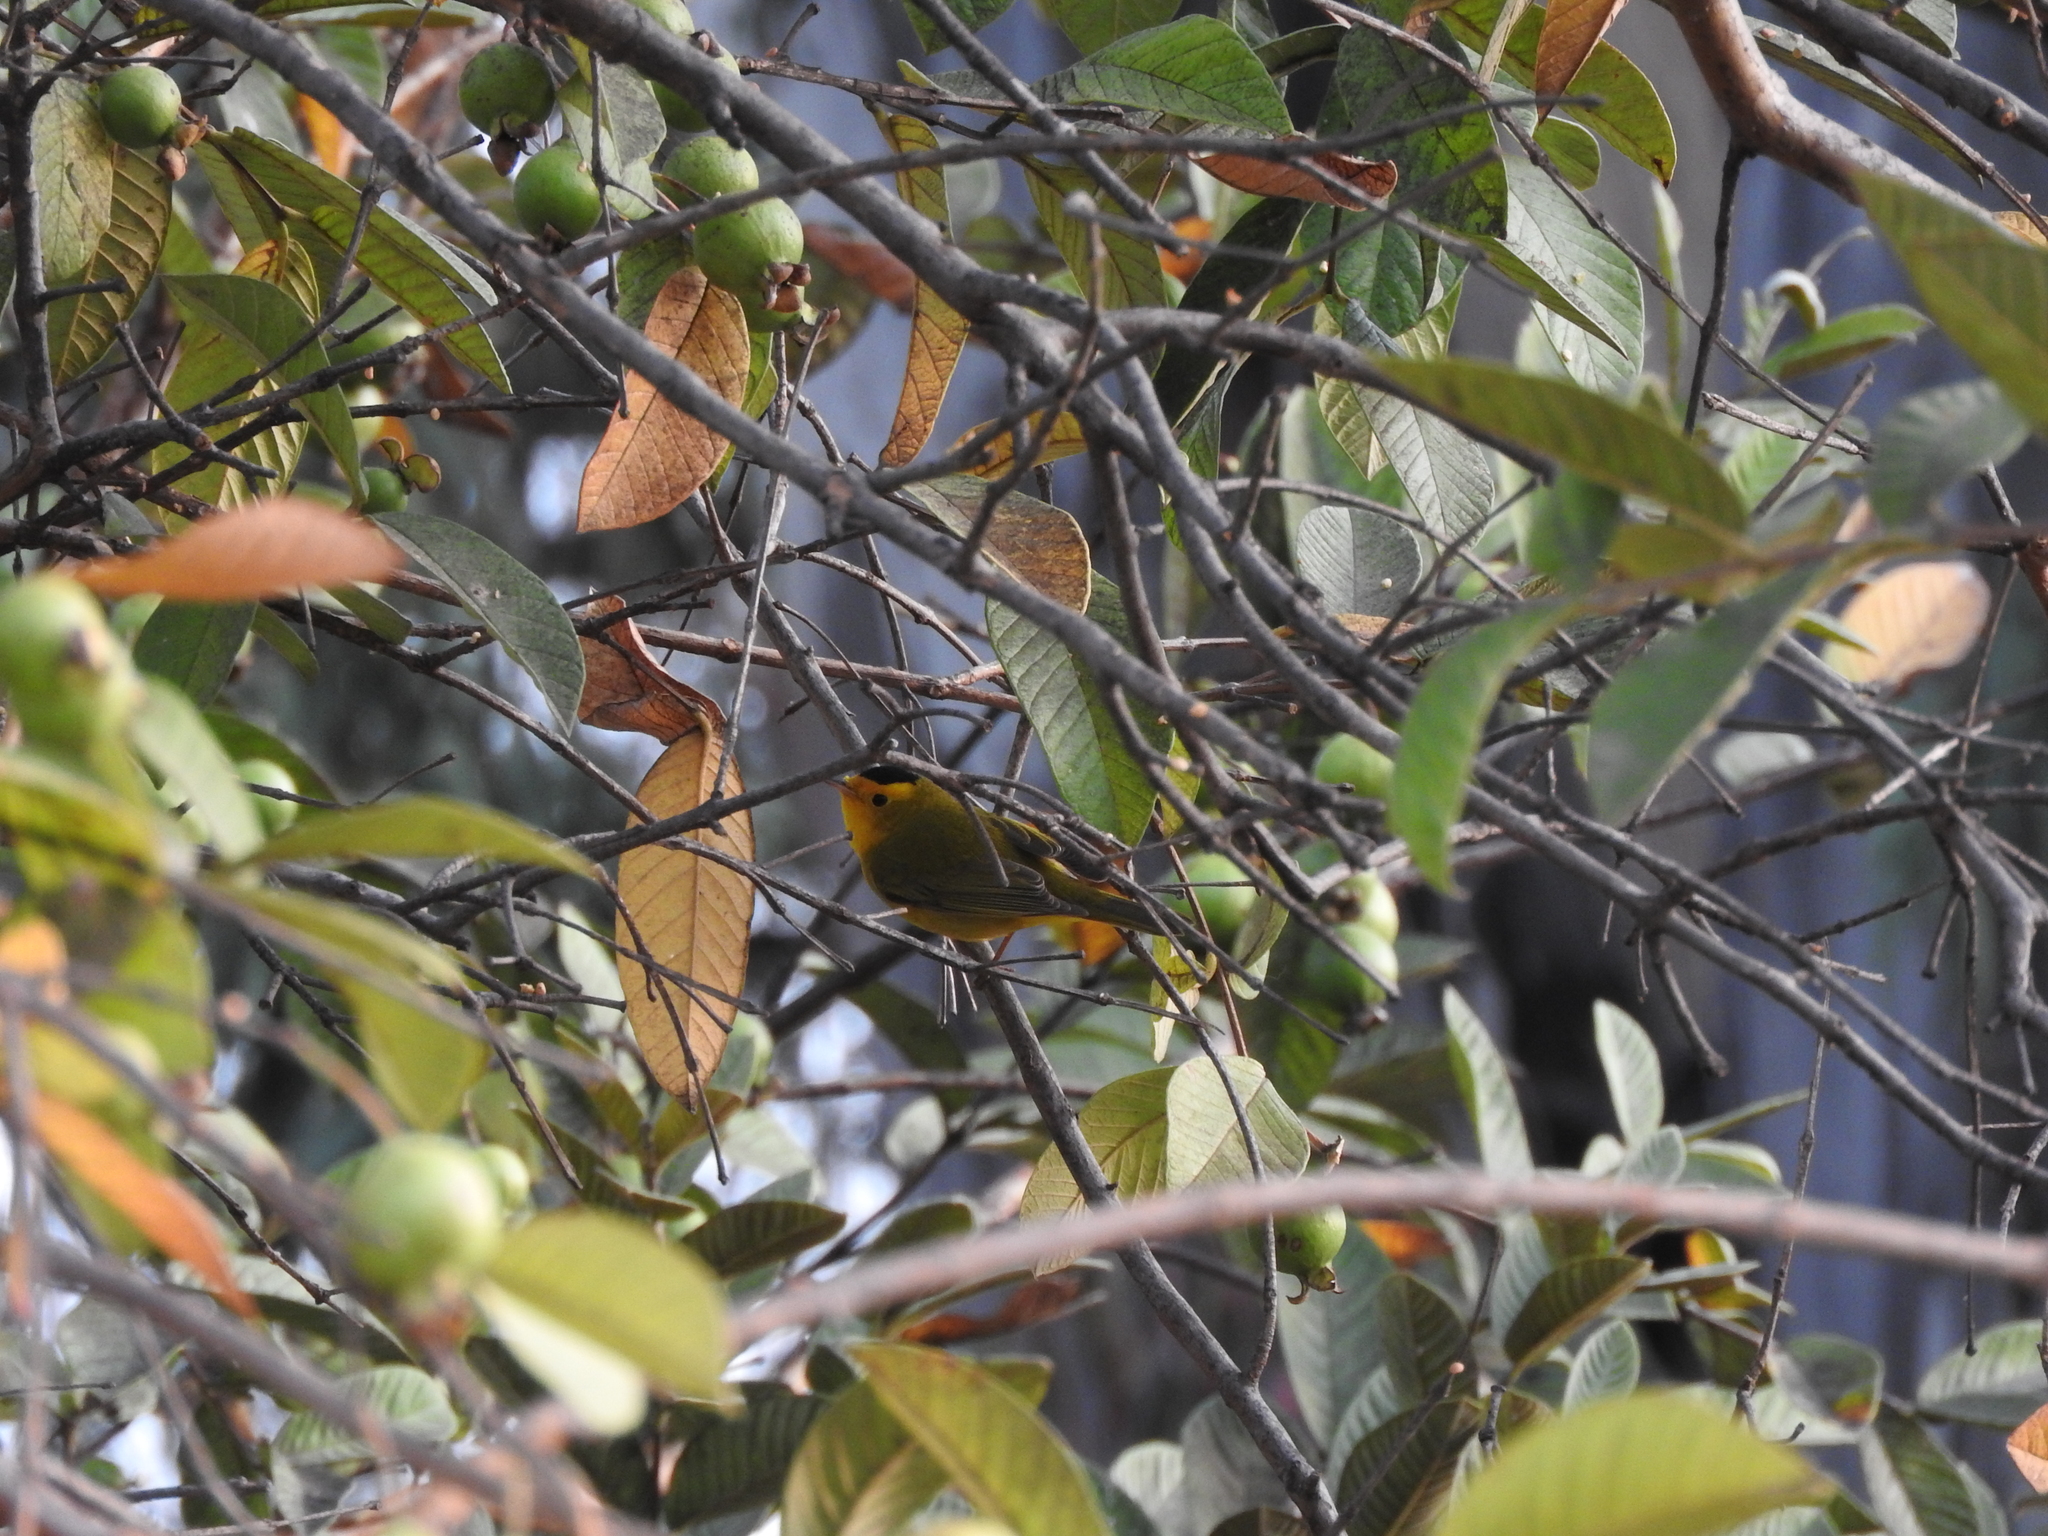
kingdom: Animalia
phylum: Chordata
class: Aves
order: Passeriformes
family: Parulidae
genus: Cardellina
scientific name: Cardellina pusilla
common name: Wilson's warbler
